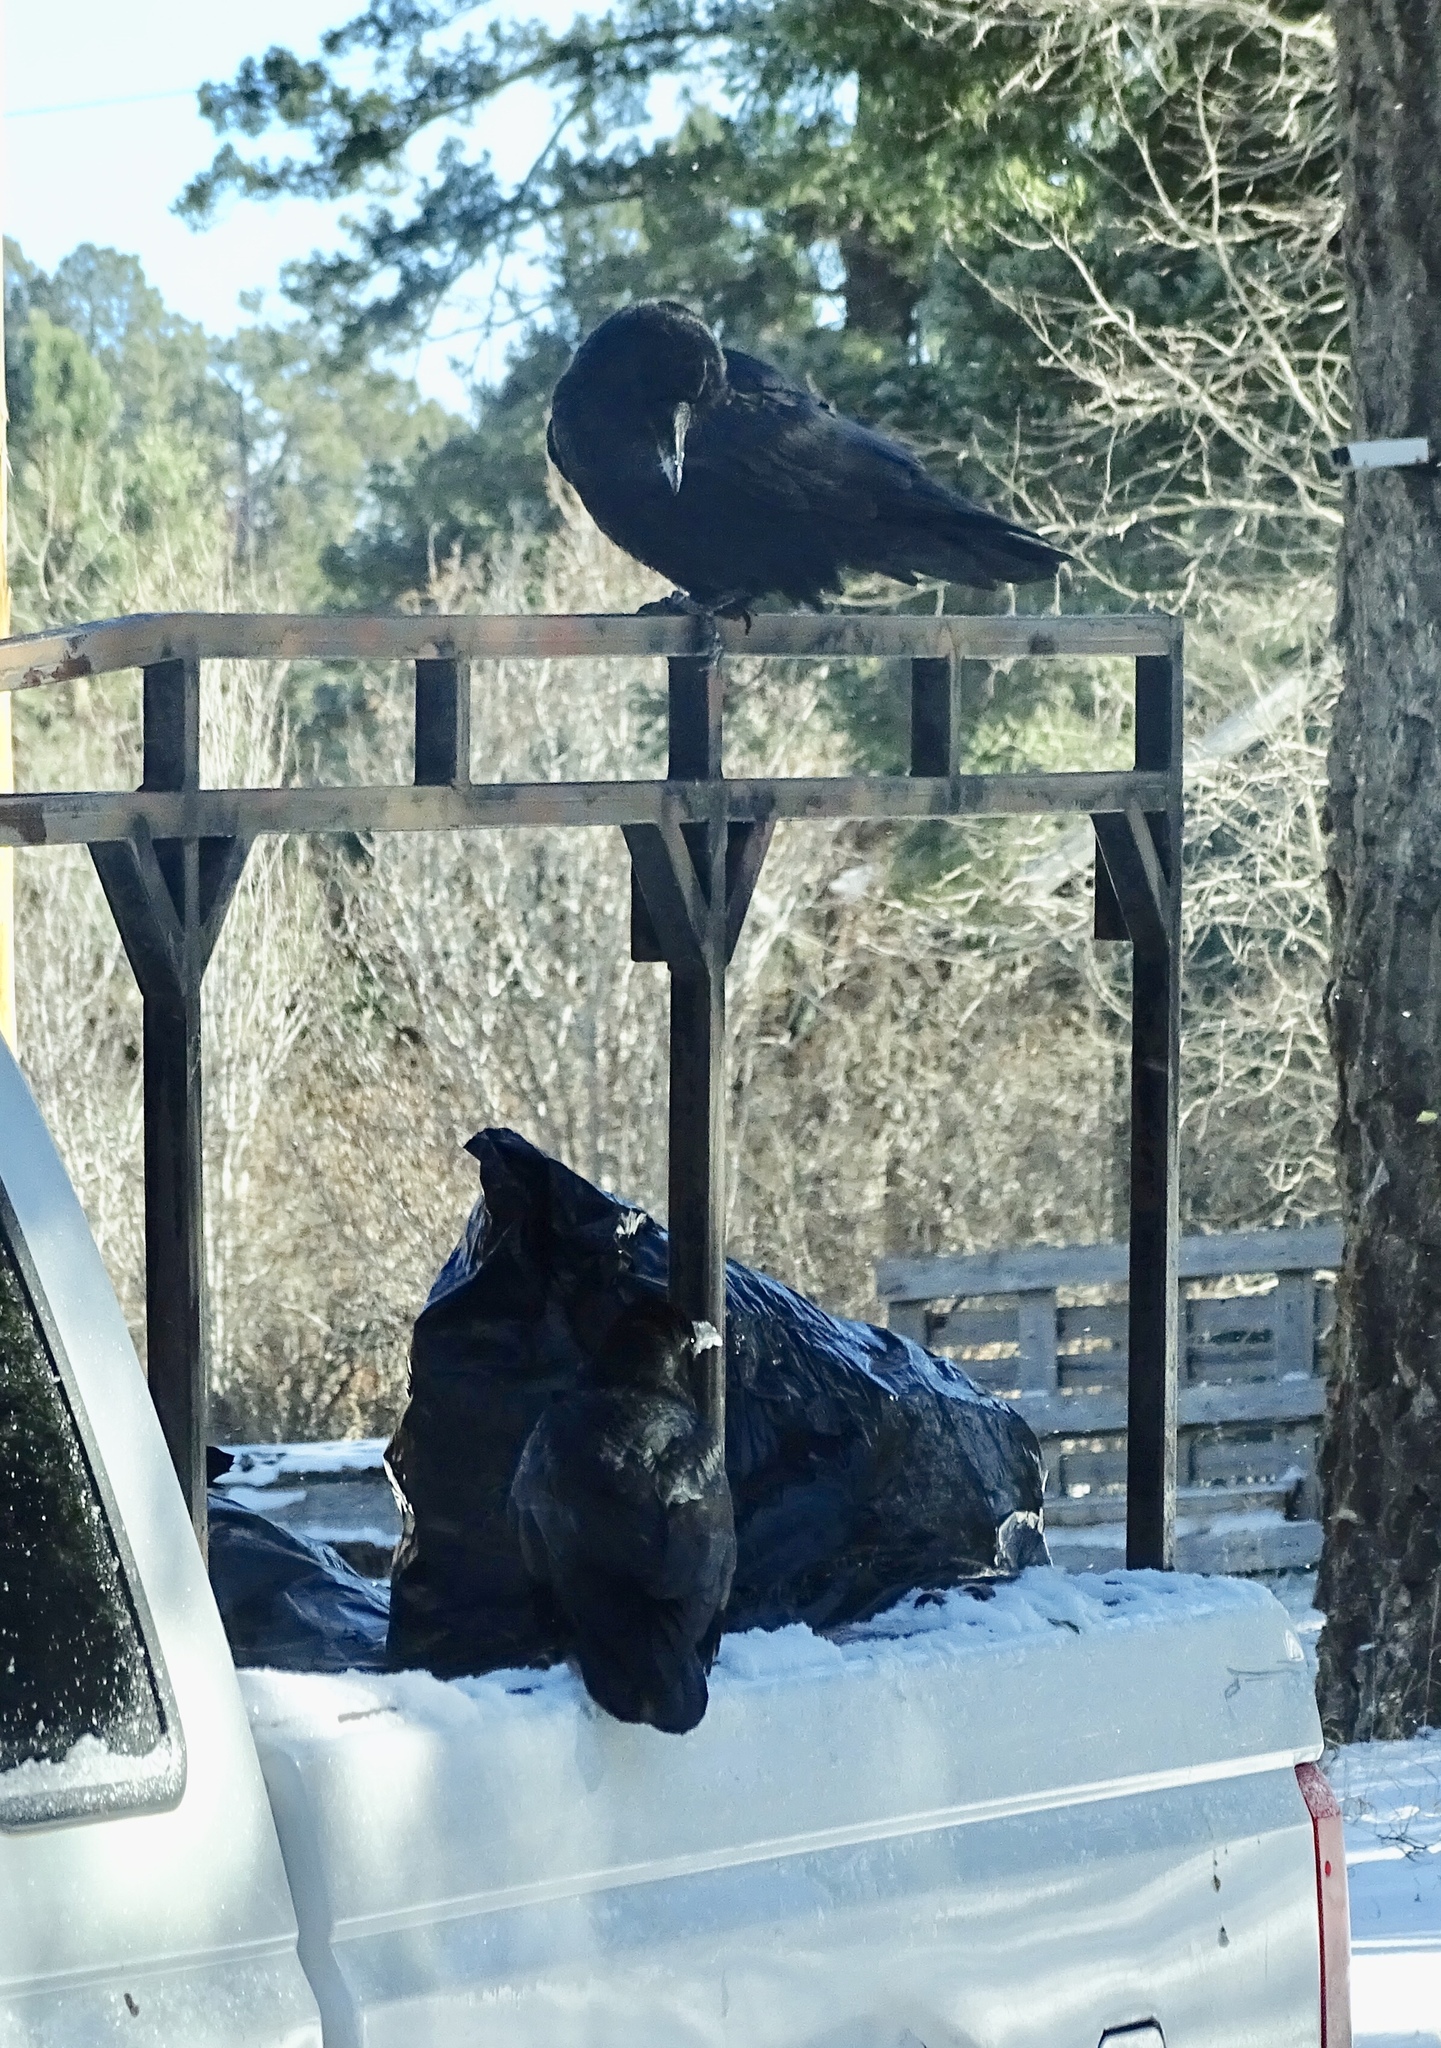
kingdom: Animalia
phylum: Chordata
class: Aves
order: Passeriformes
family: Corvidae
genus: Corvus
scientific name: Corvus corax
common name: Common raven
